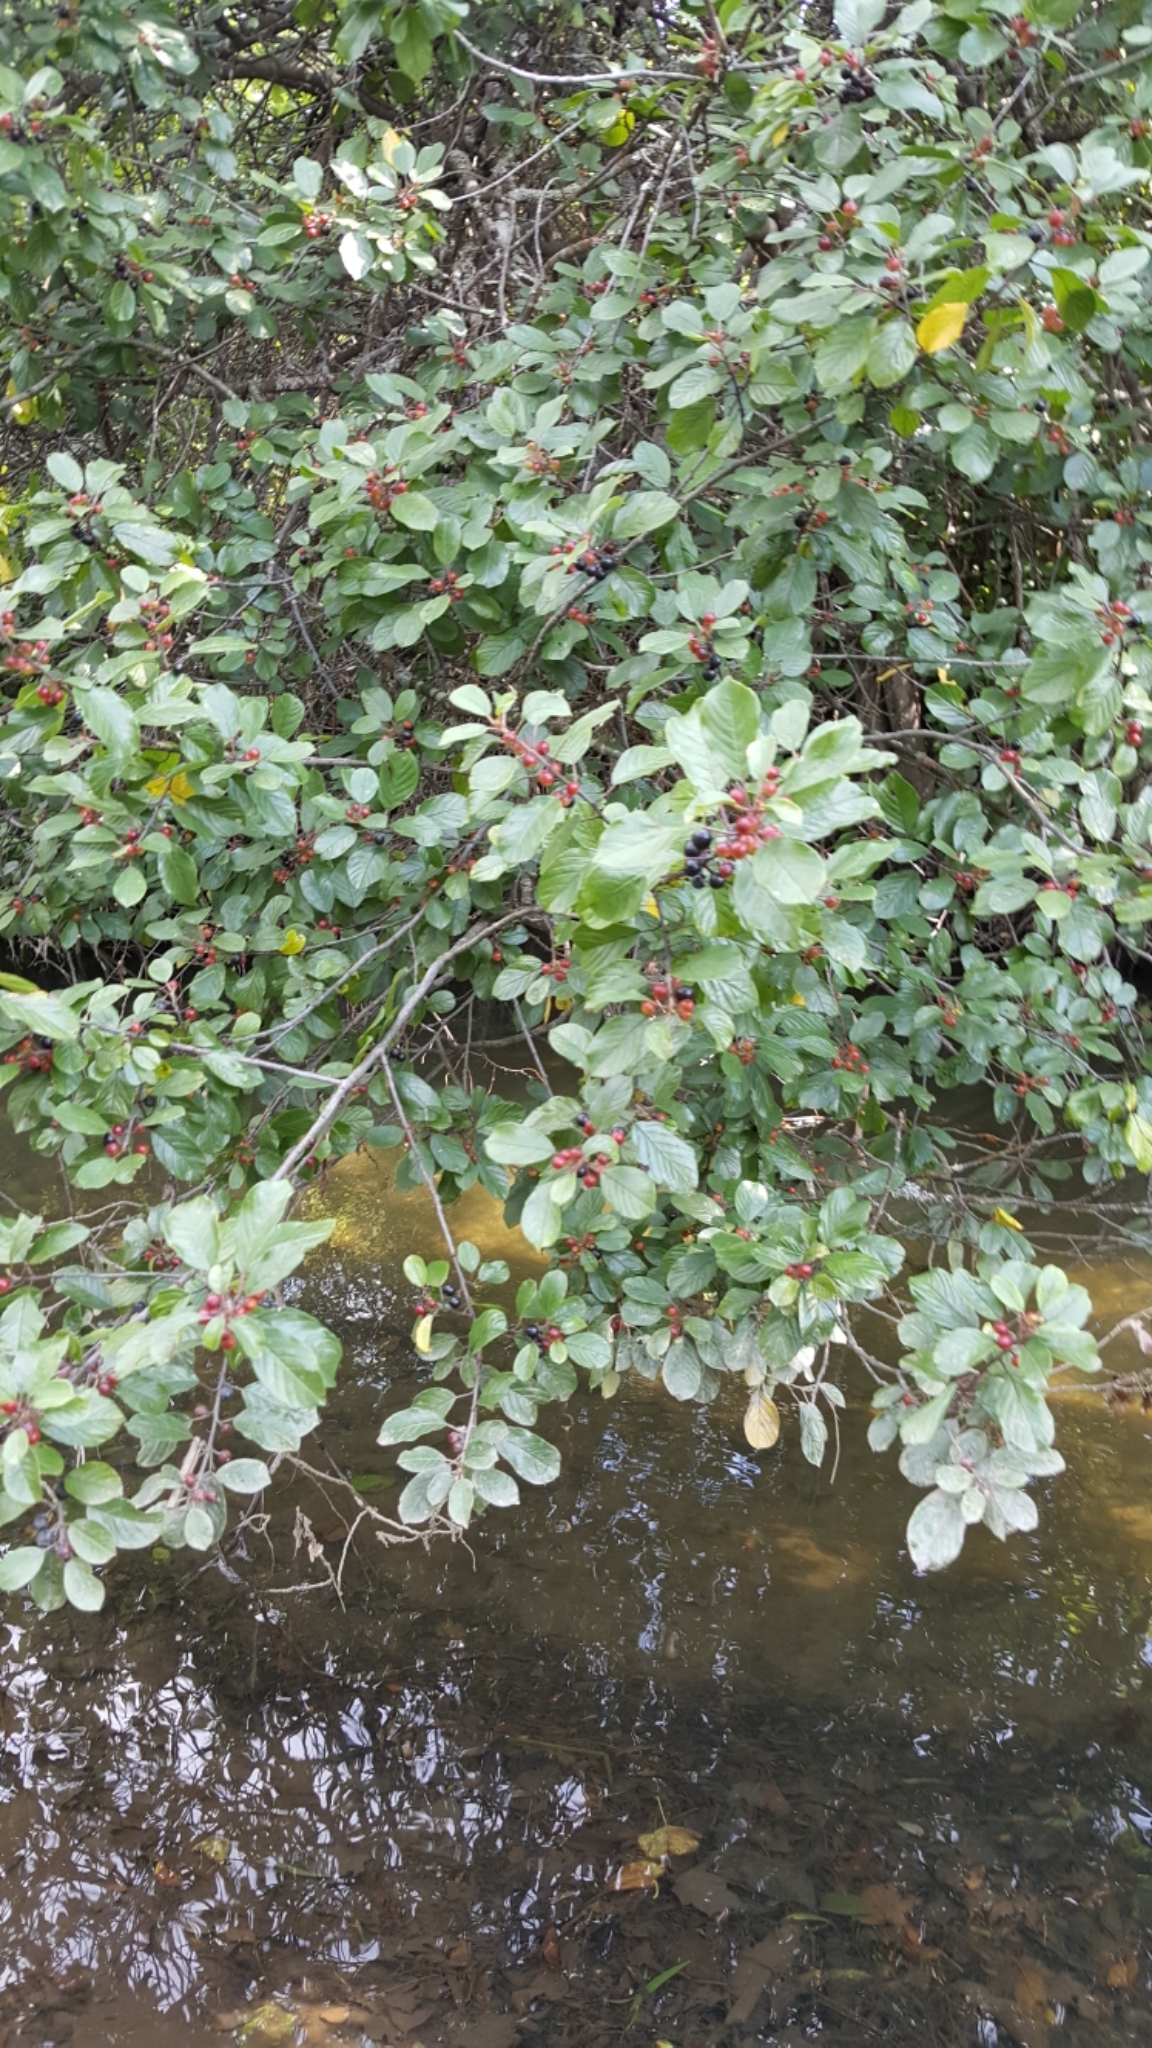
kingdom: Plantae
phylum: Tracheophyta
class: Magnoliopsida
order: Rosales
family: Rhamnaceae
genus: Frangula
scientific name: Frangula alnus
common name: Alder buckthorn
